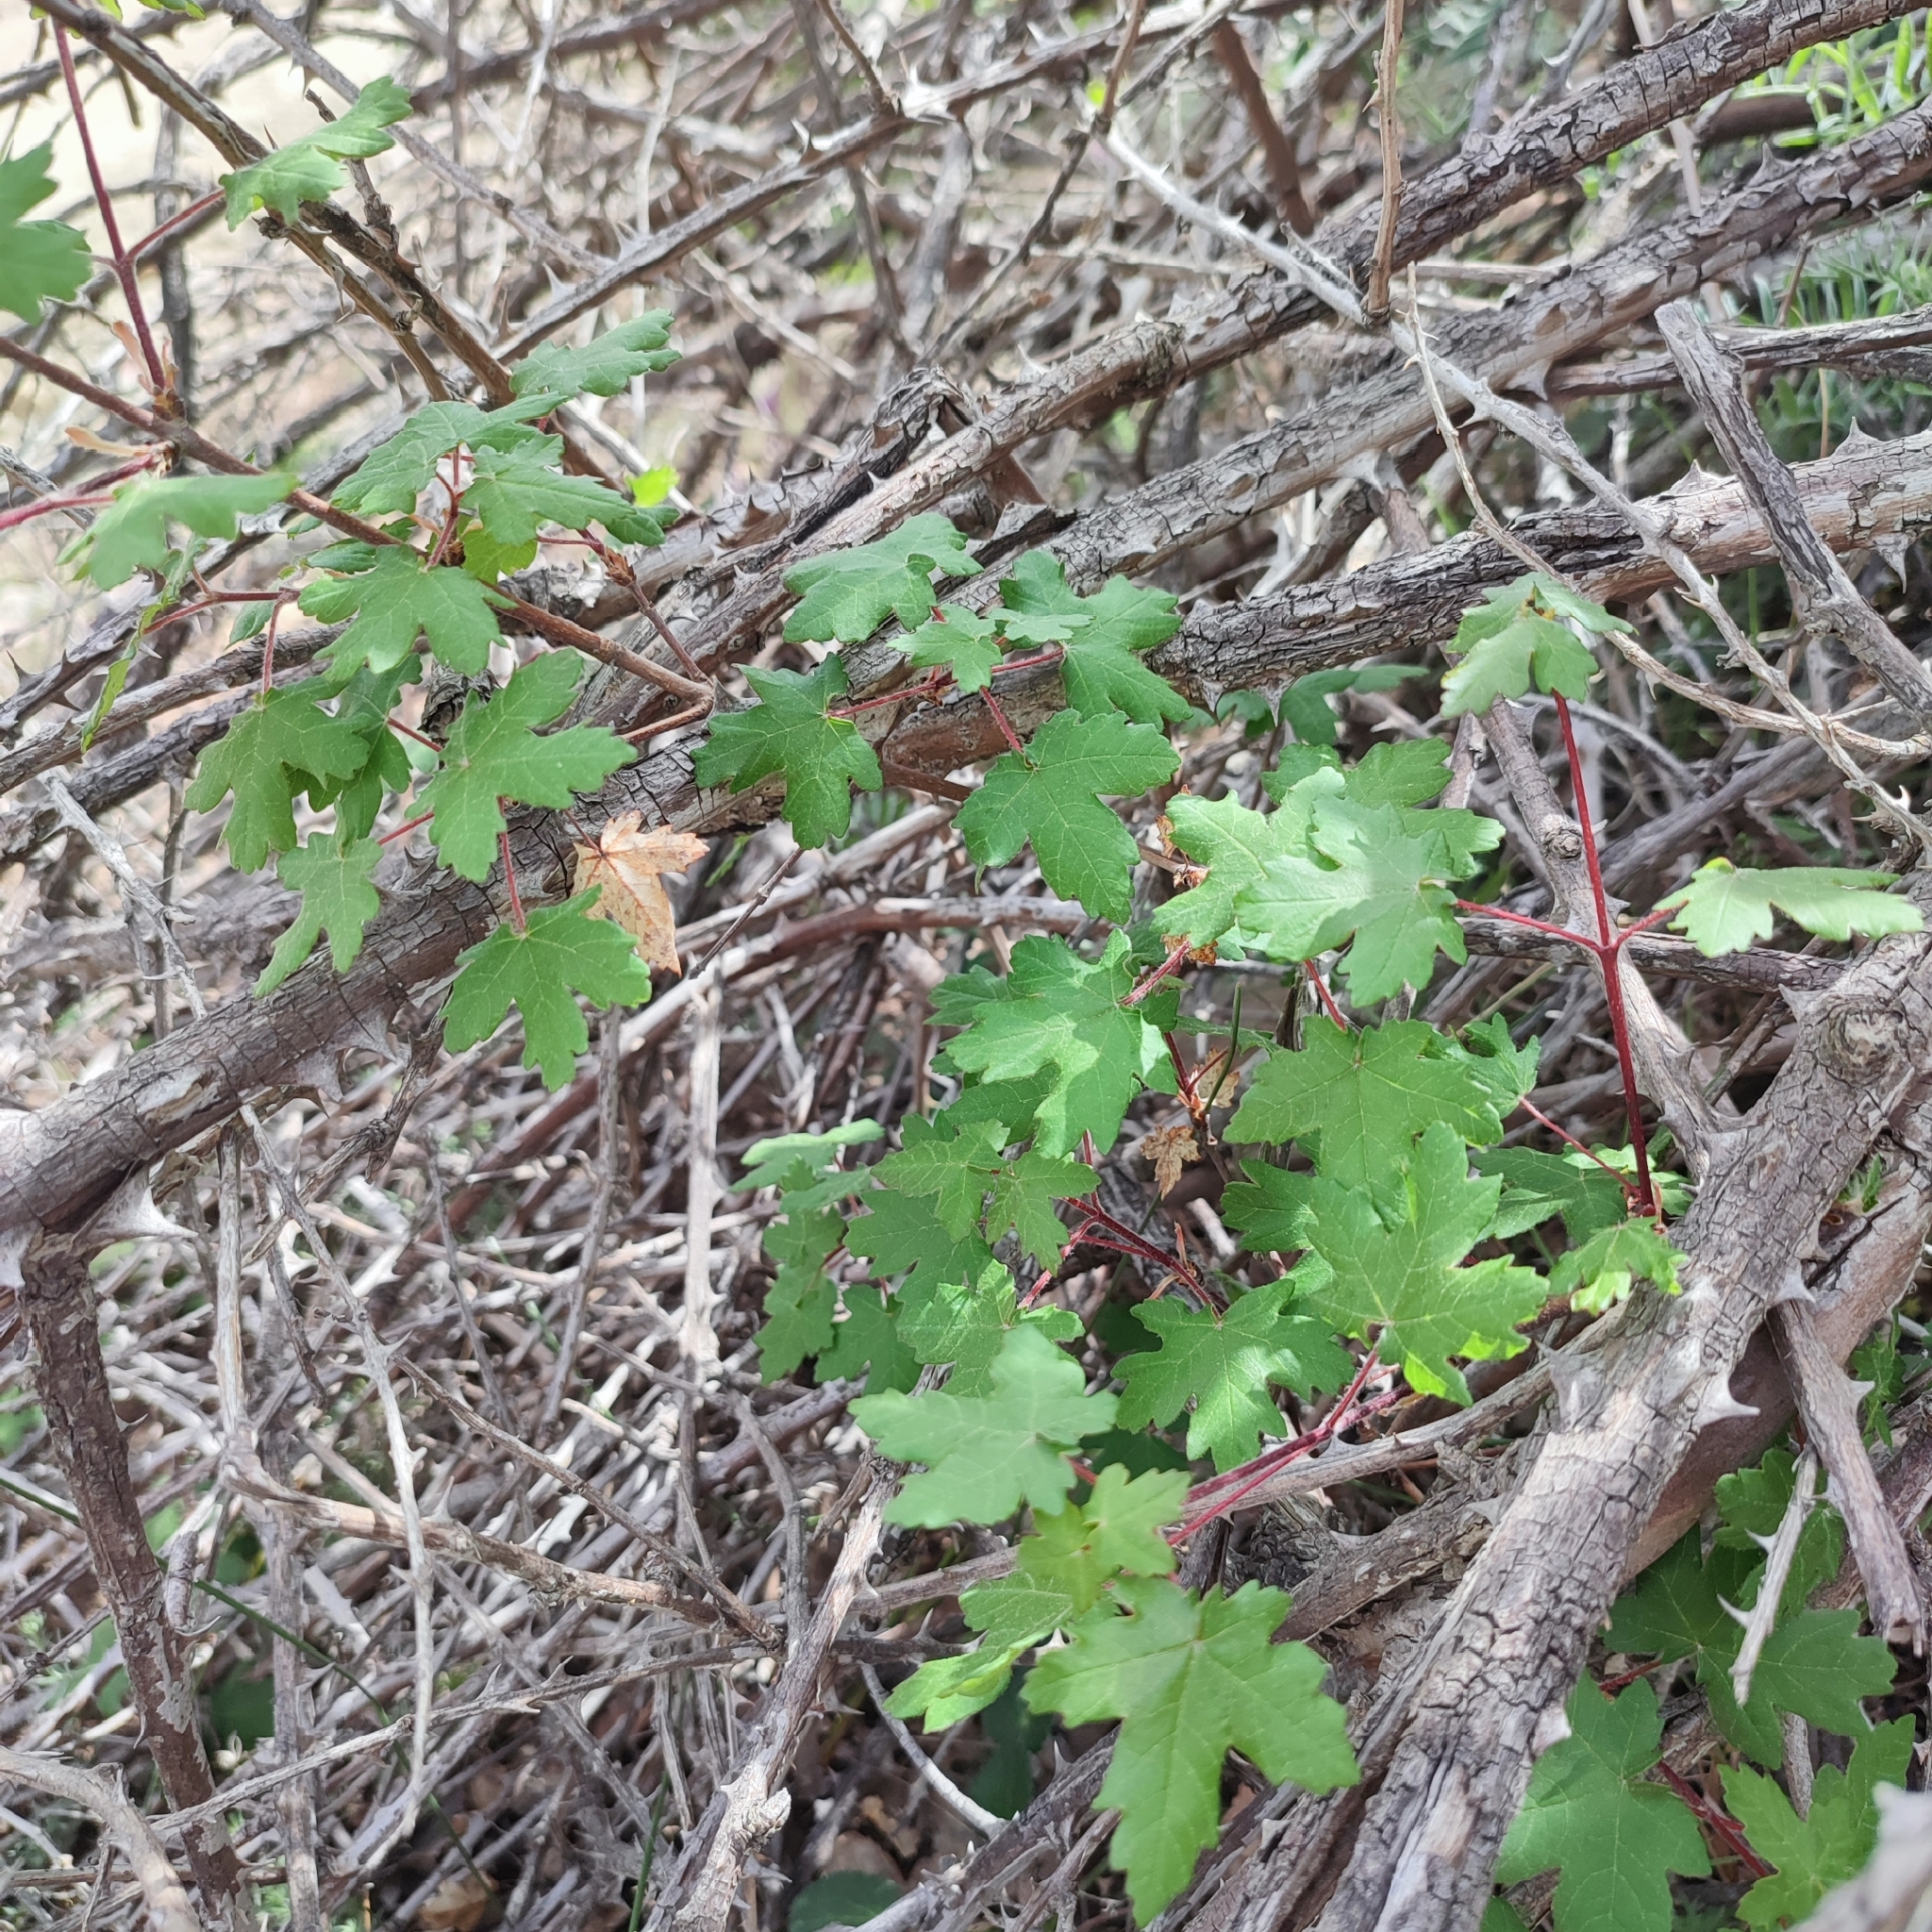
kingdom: Plantae
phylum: Tracheophyta
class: Magnoliopsida
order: Sapindales
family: Sapindaceae
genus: Acer
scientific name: Acer granatense
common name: Spanish maple
